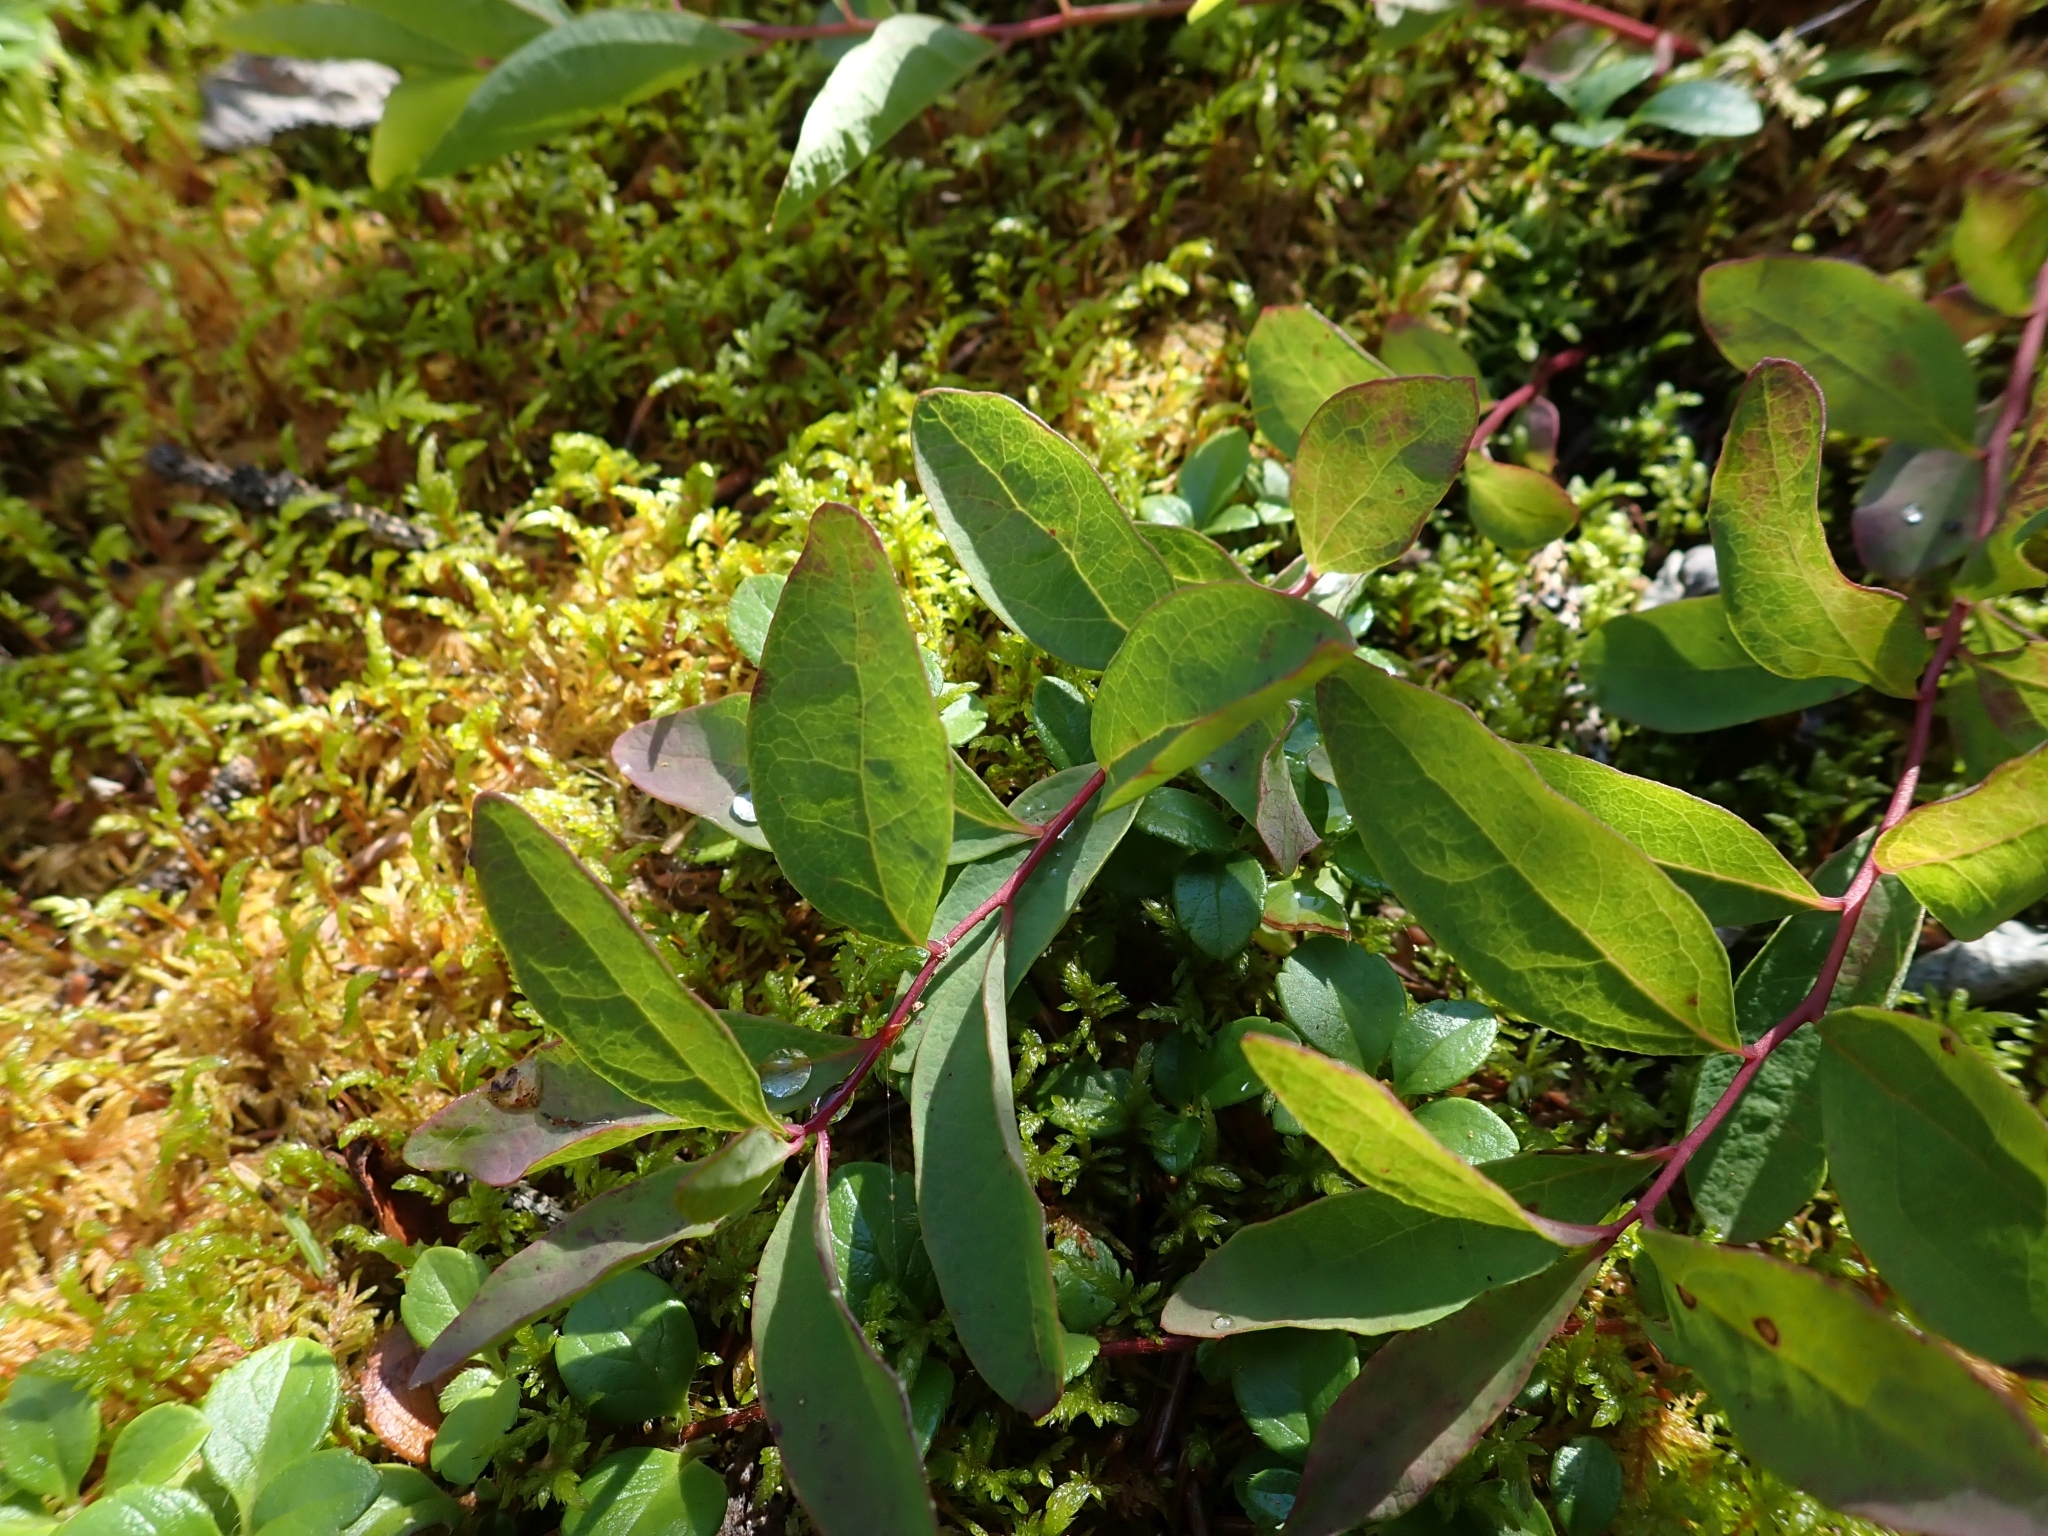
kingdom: Plantae
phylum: Tracheophyta
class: Magnoliopsida
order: Santalales
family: Comandraceae
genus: Geocaulon
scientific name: Geocaulon lividum
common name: Earthberry
